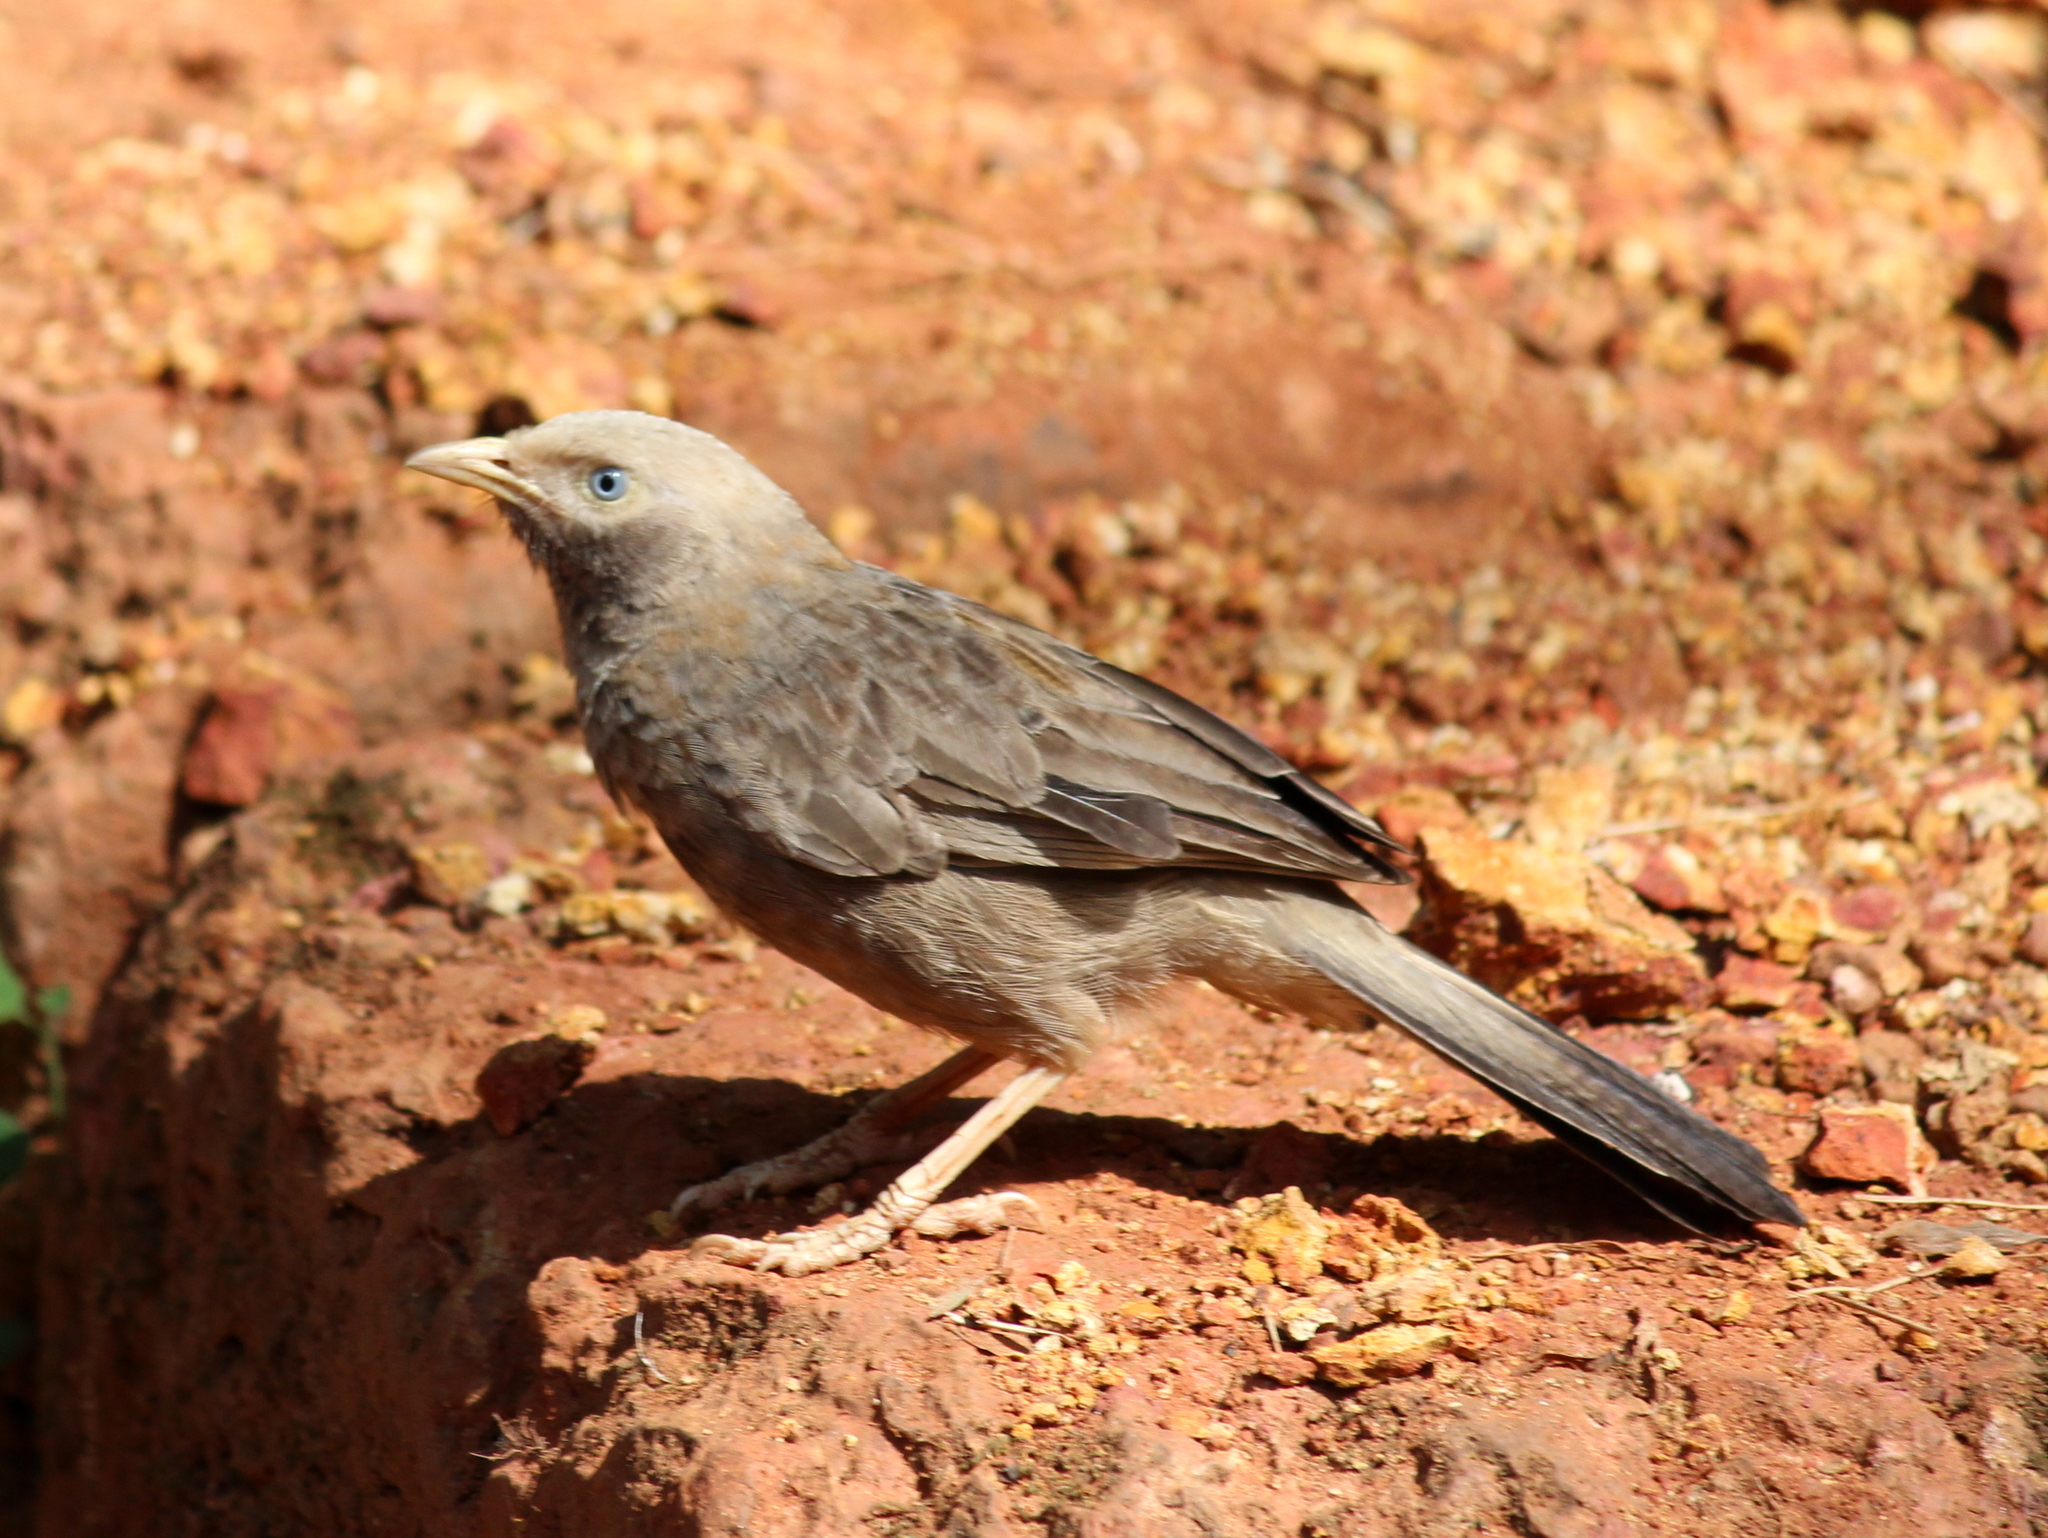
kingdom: Animalia
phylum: Chordata
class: Aves
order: Passeriformes
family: Leiothrichidae
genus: Turdoides
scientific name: Turdoides affinis
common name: Yellow-billed babbler
